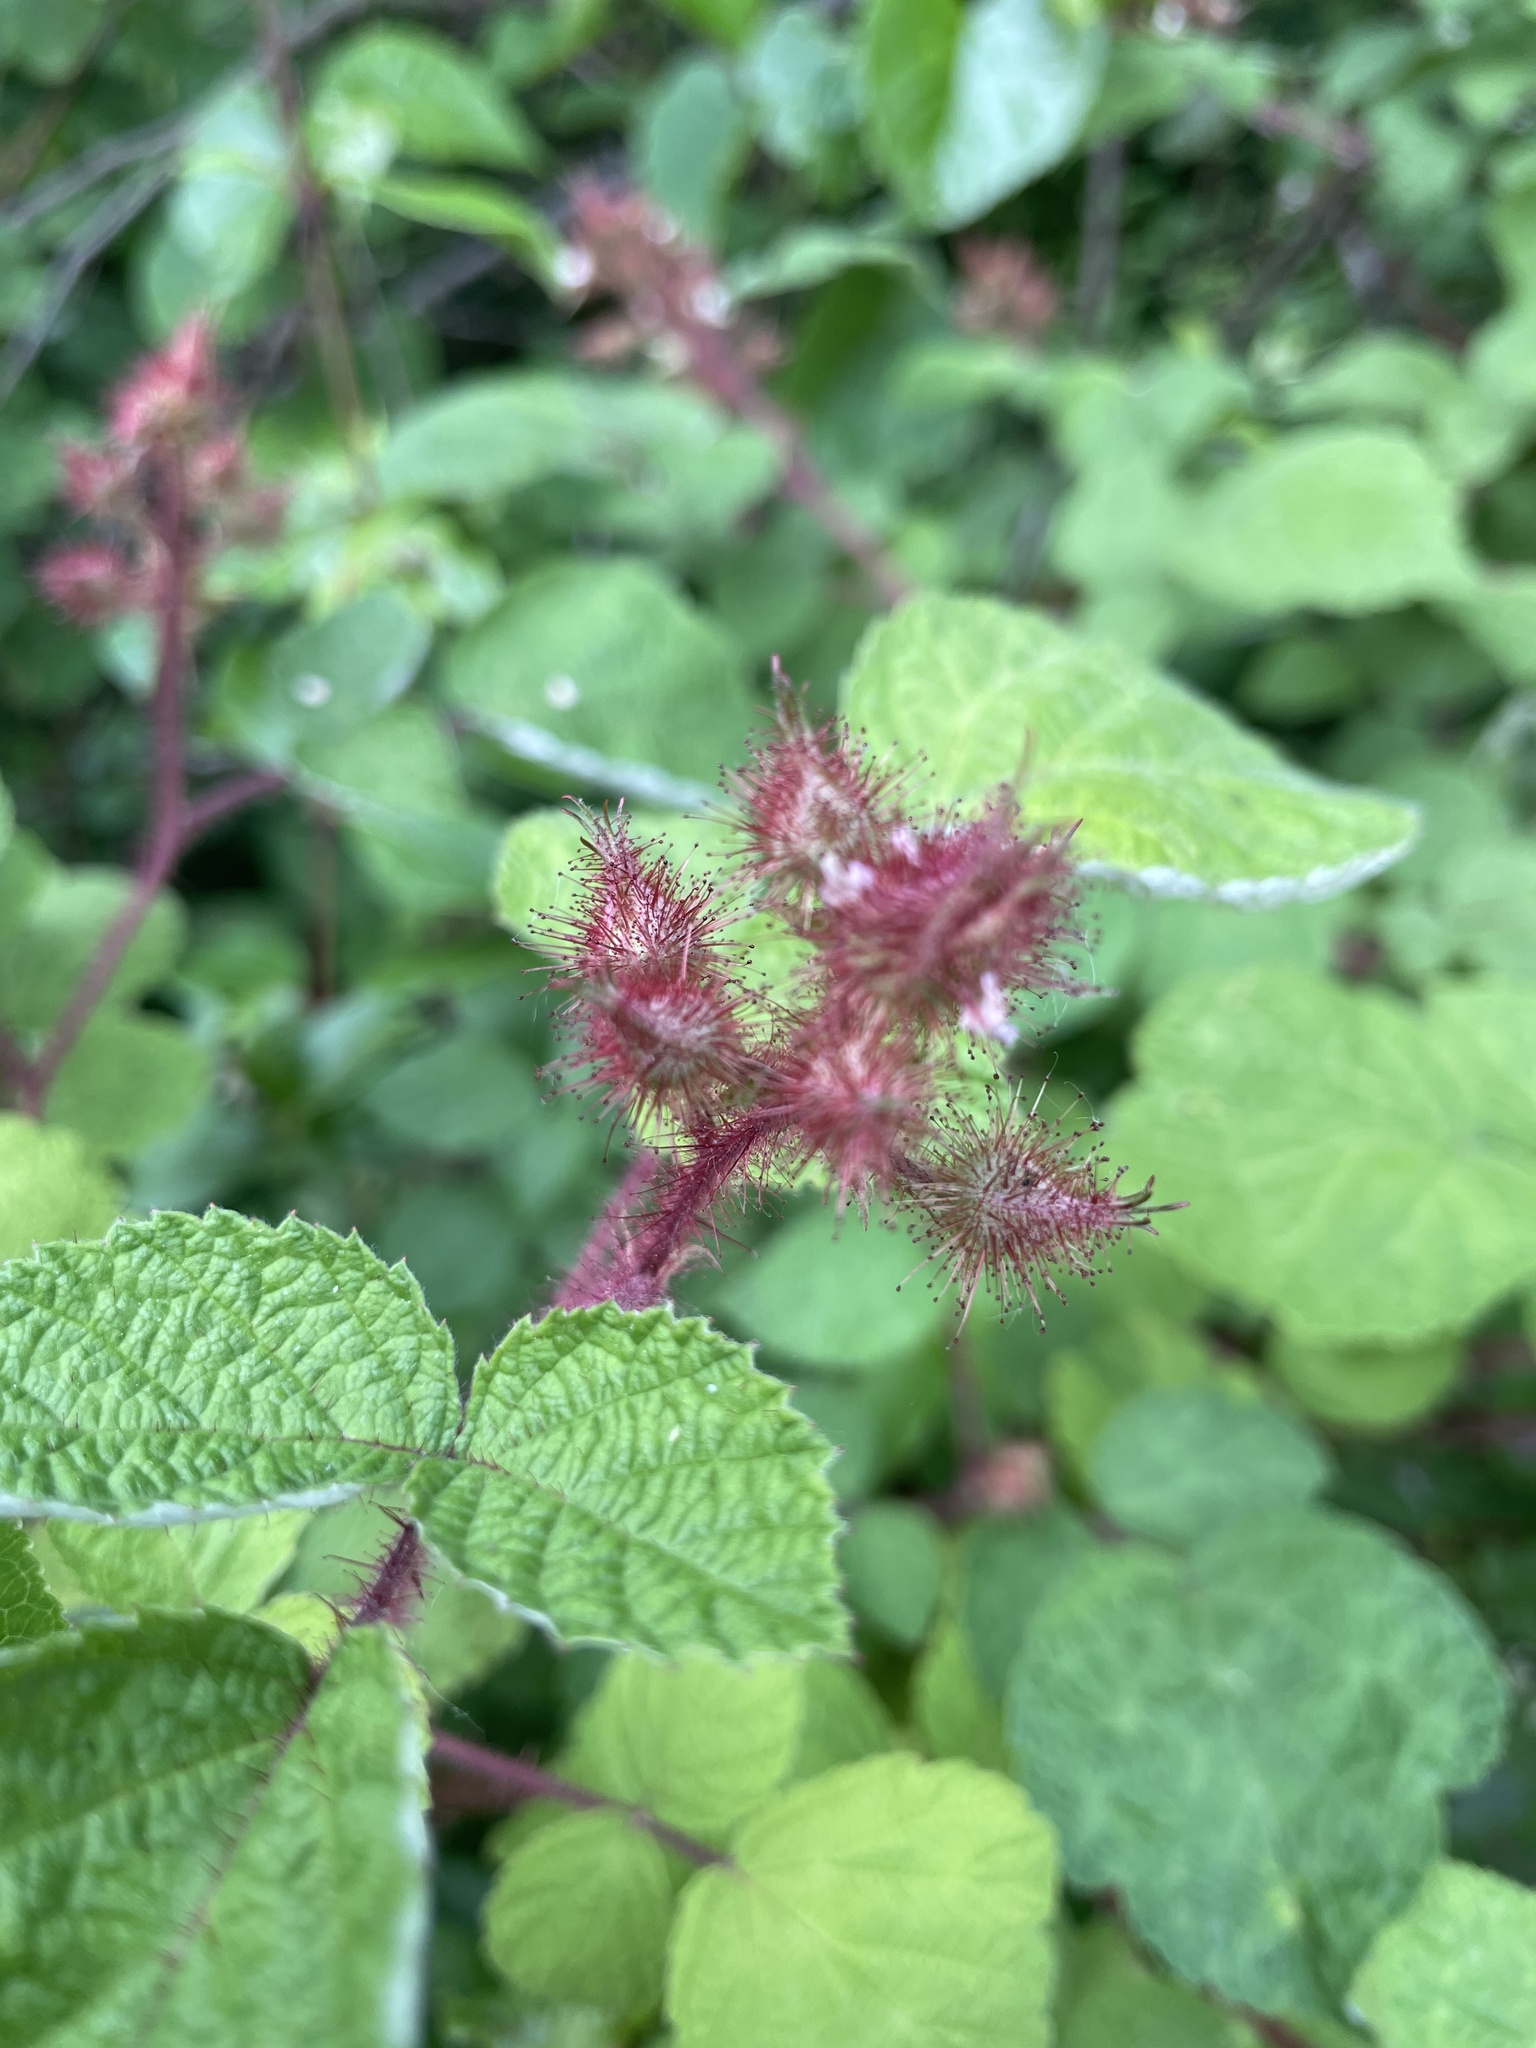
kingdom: Plantae
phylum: Tracheophyta
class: Magnoliopsida
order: Rosales
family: Rosaceae
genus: Rubus
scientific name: Rubus phoenicolasius
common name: Japanese wineberry
